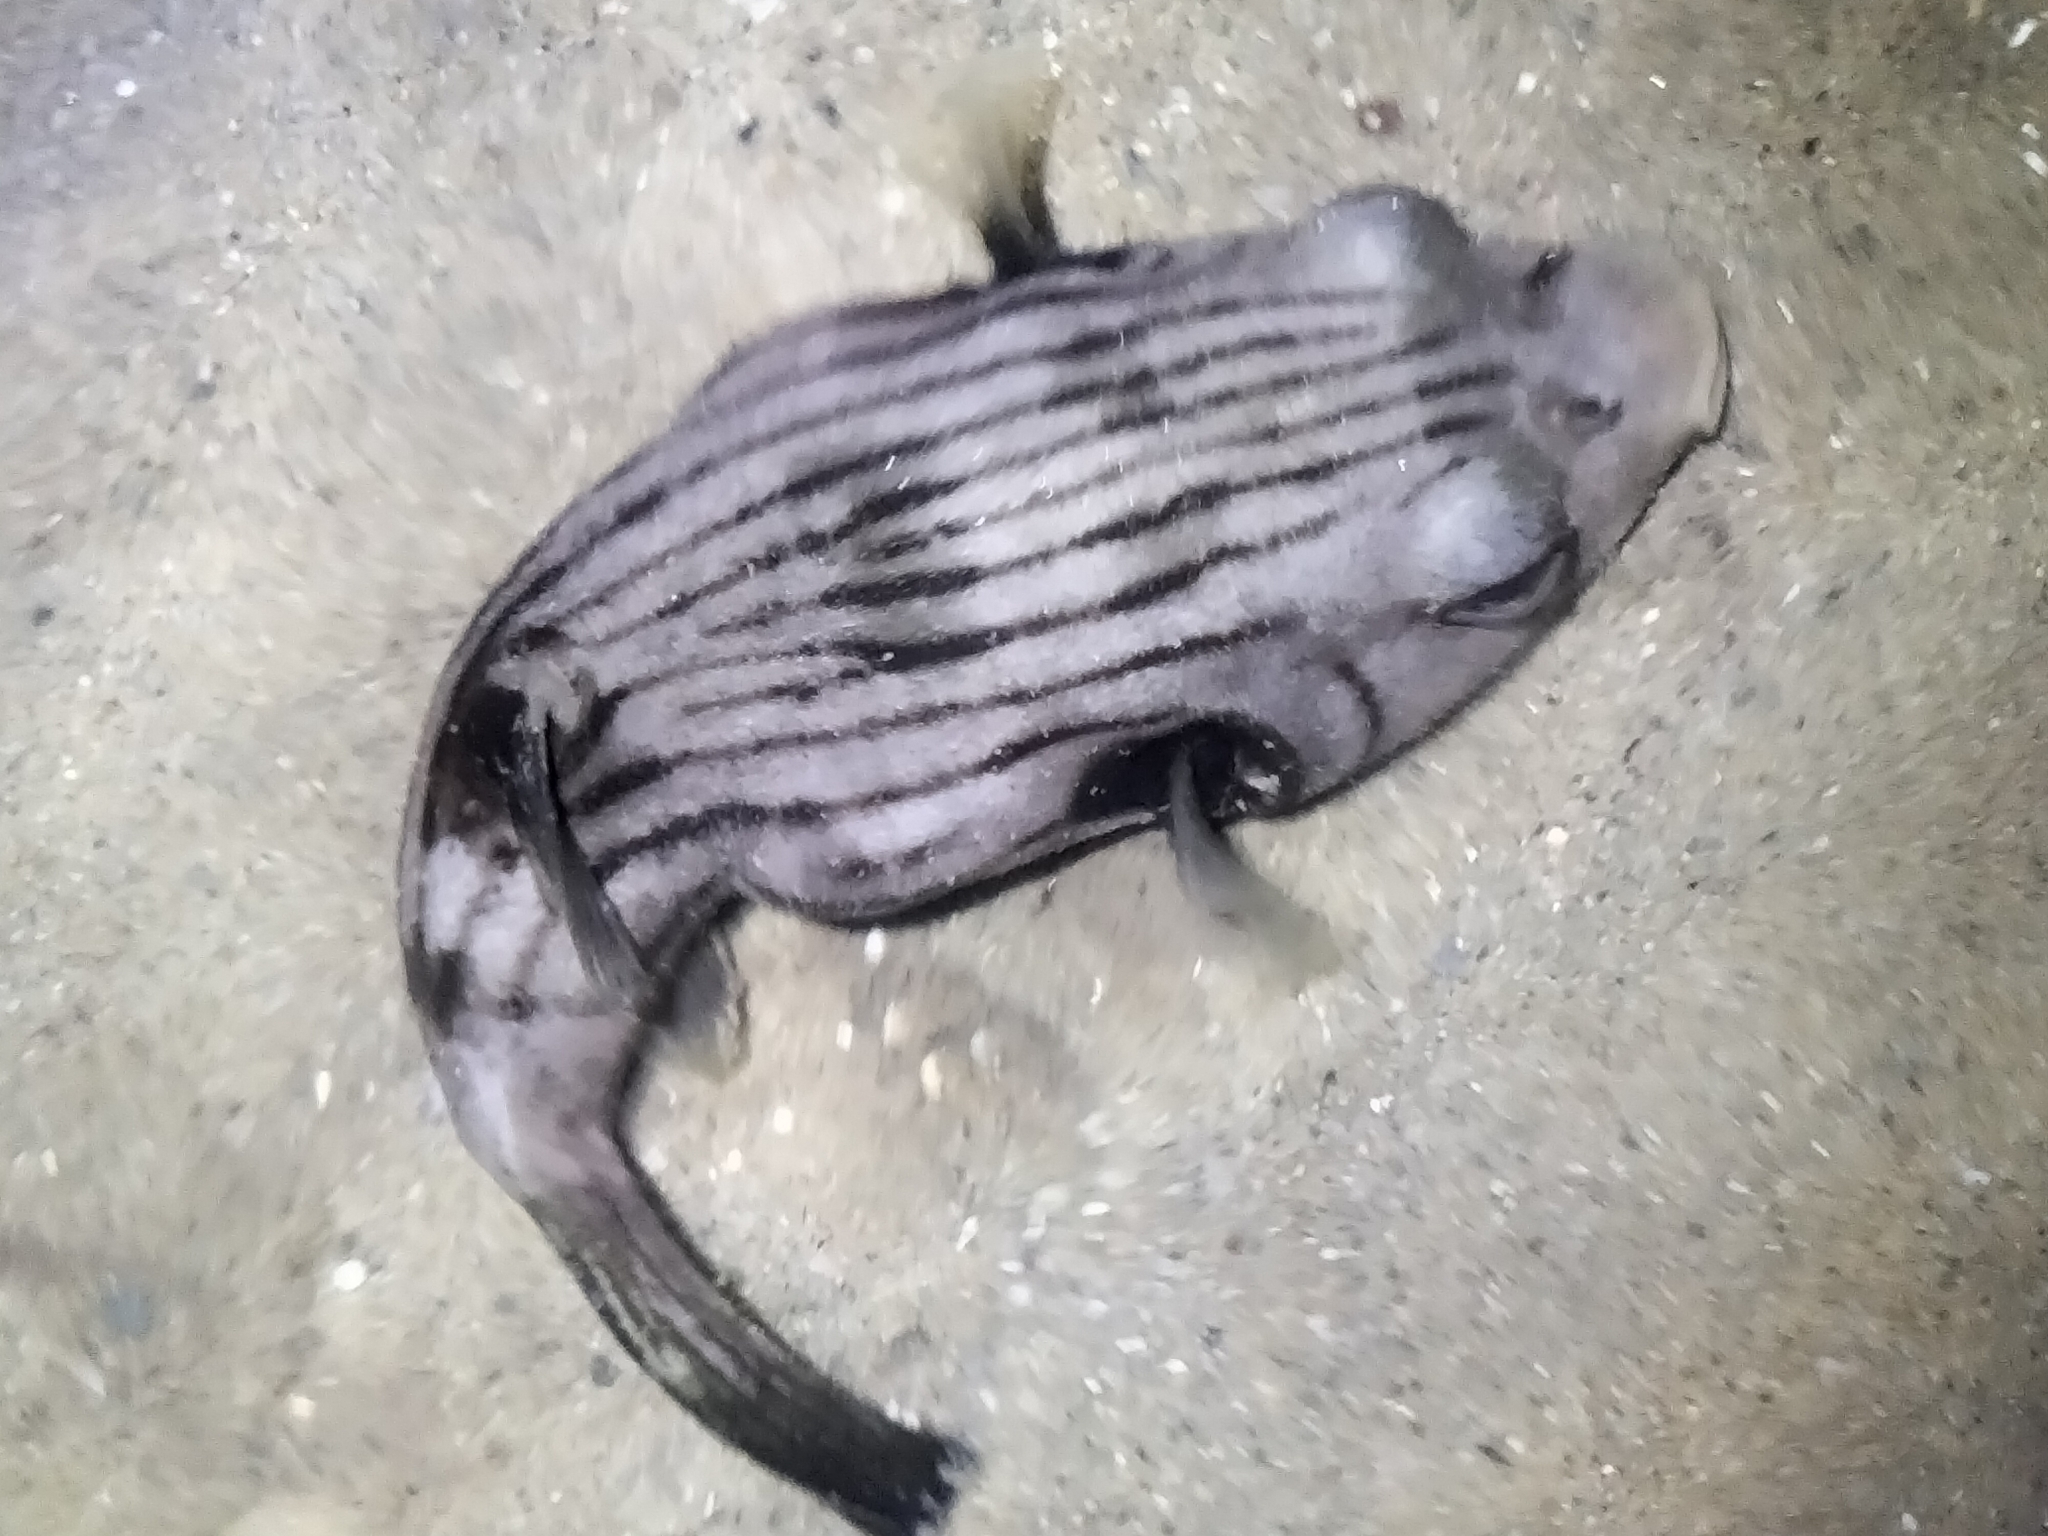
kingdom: Animalia
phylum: Chordata
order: Tetraodontiformes
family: Tetraodontidae
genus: Arothron
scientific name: Arothron manilensis
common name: Narrow-lined puffer
